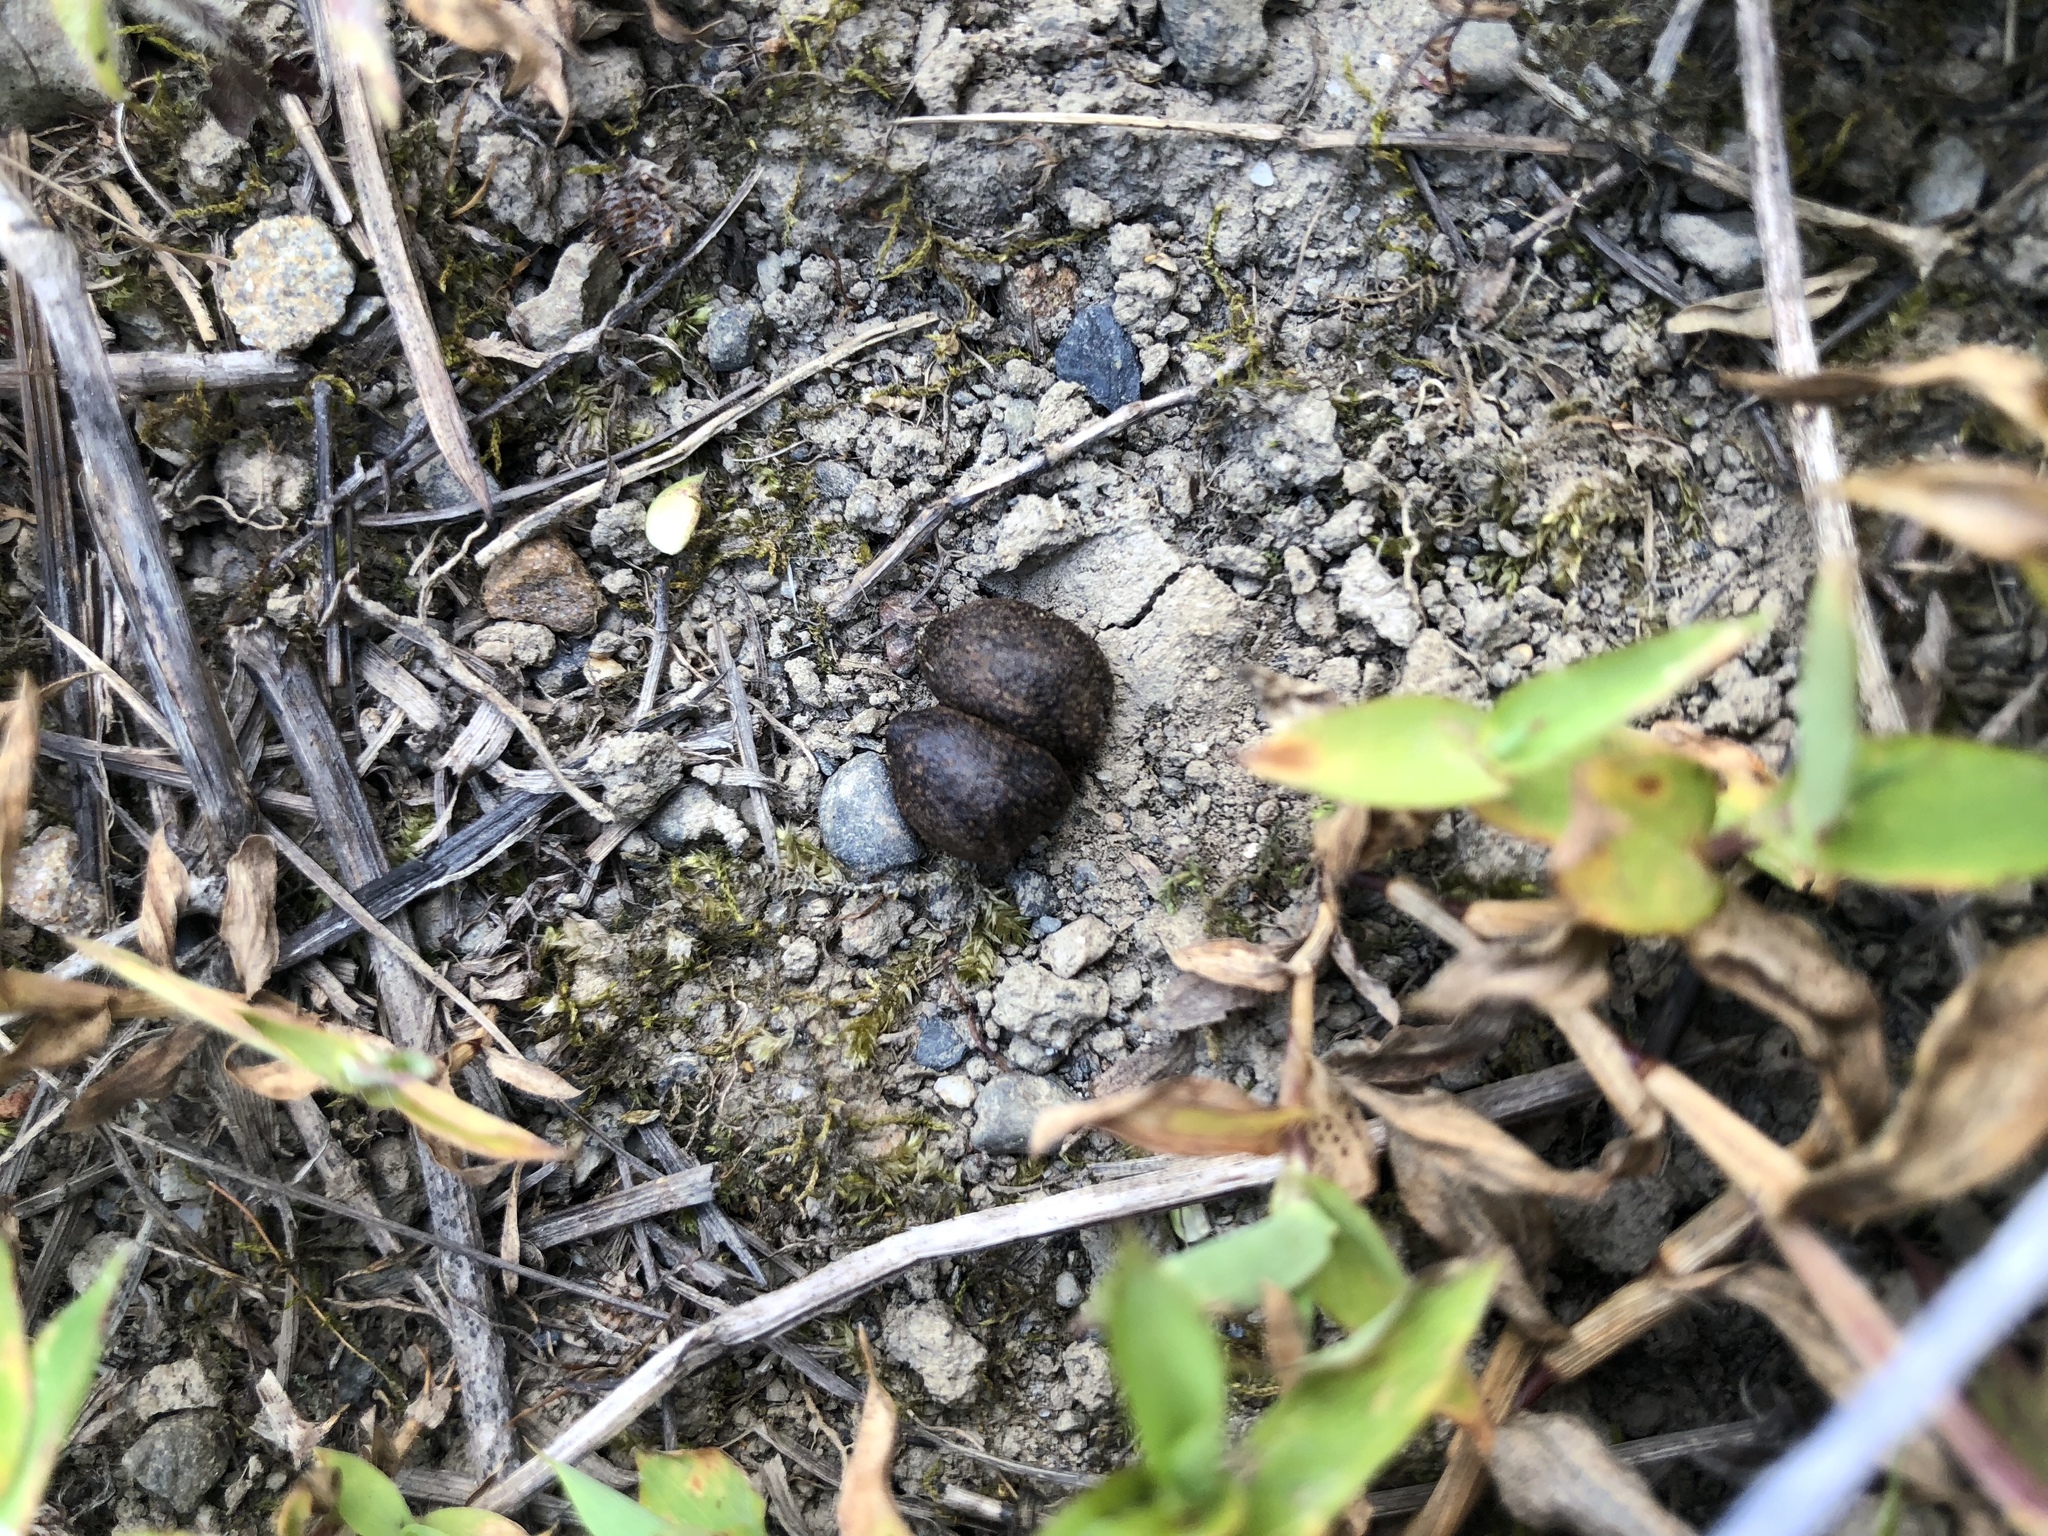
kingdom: Animalia
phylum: Chordata
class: Mammalia
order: Lagomorpha
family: Leporidae
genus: Lepus
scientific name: Lepus sinensis
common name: Chinese hare
